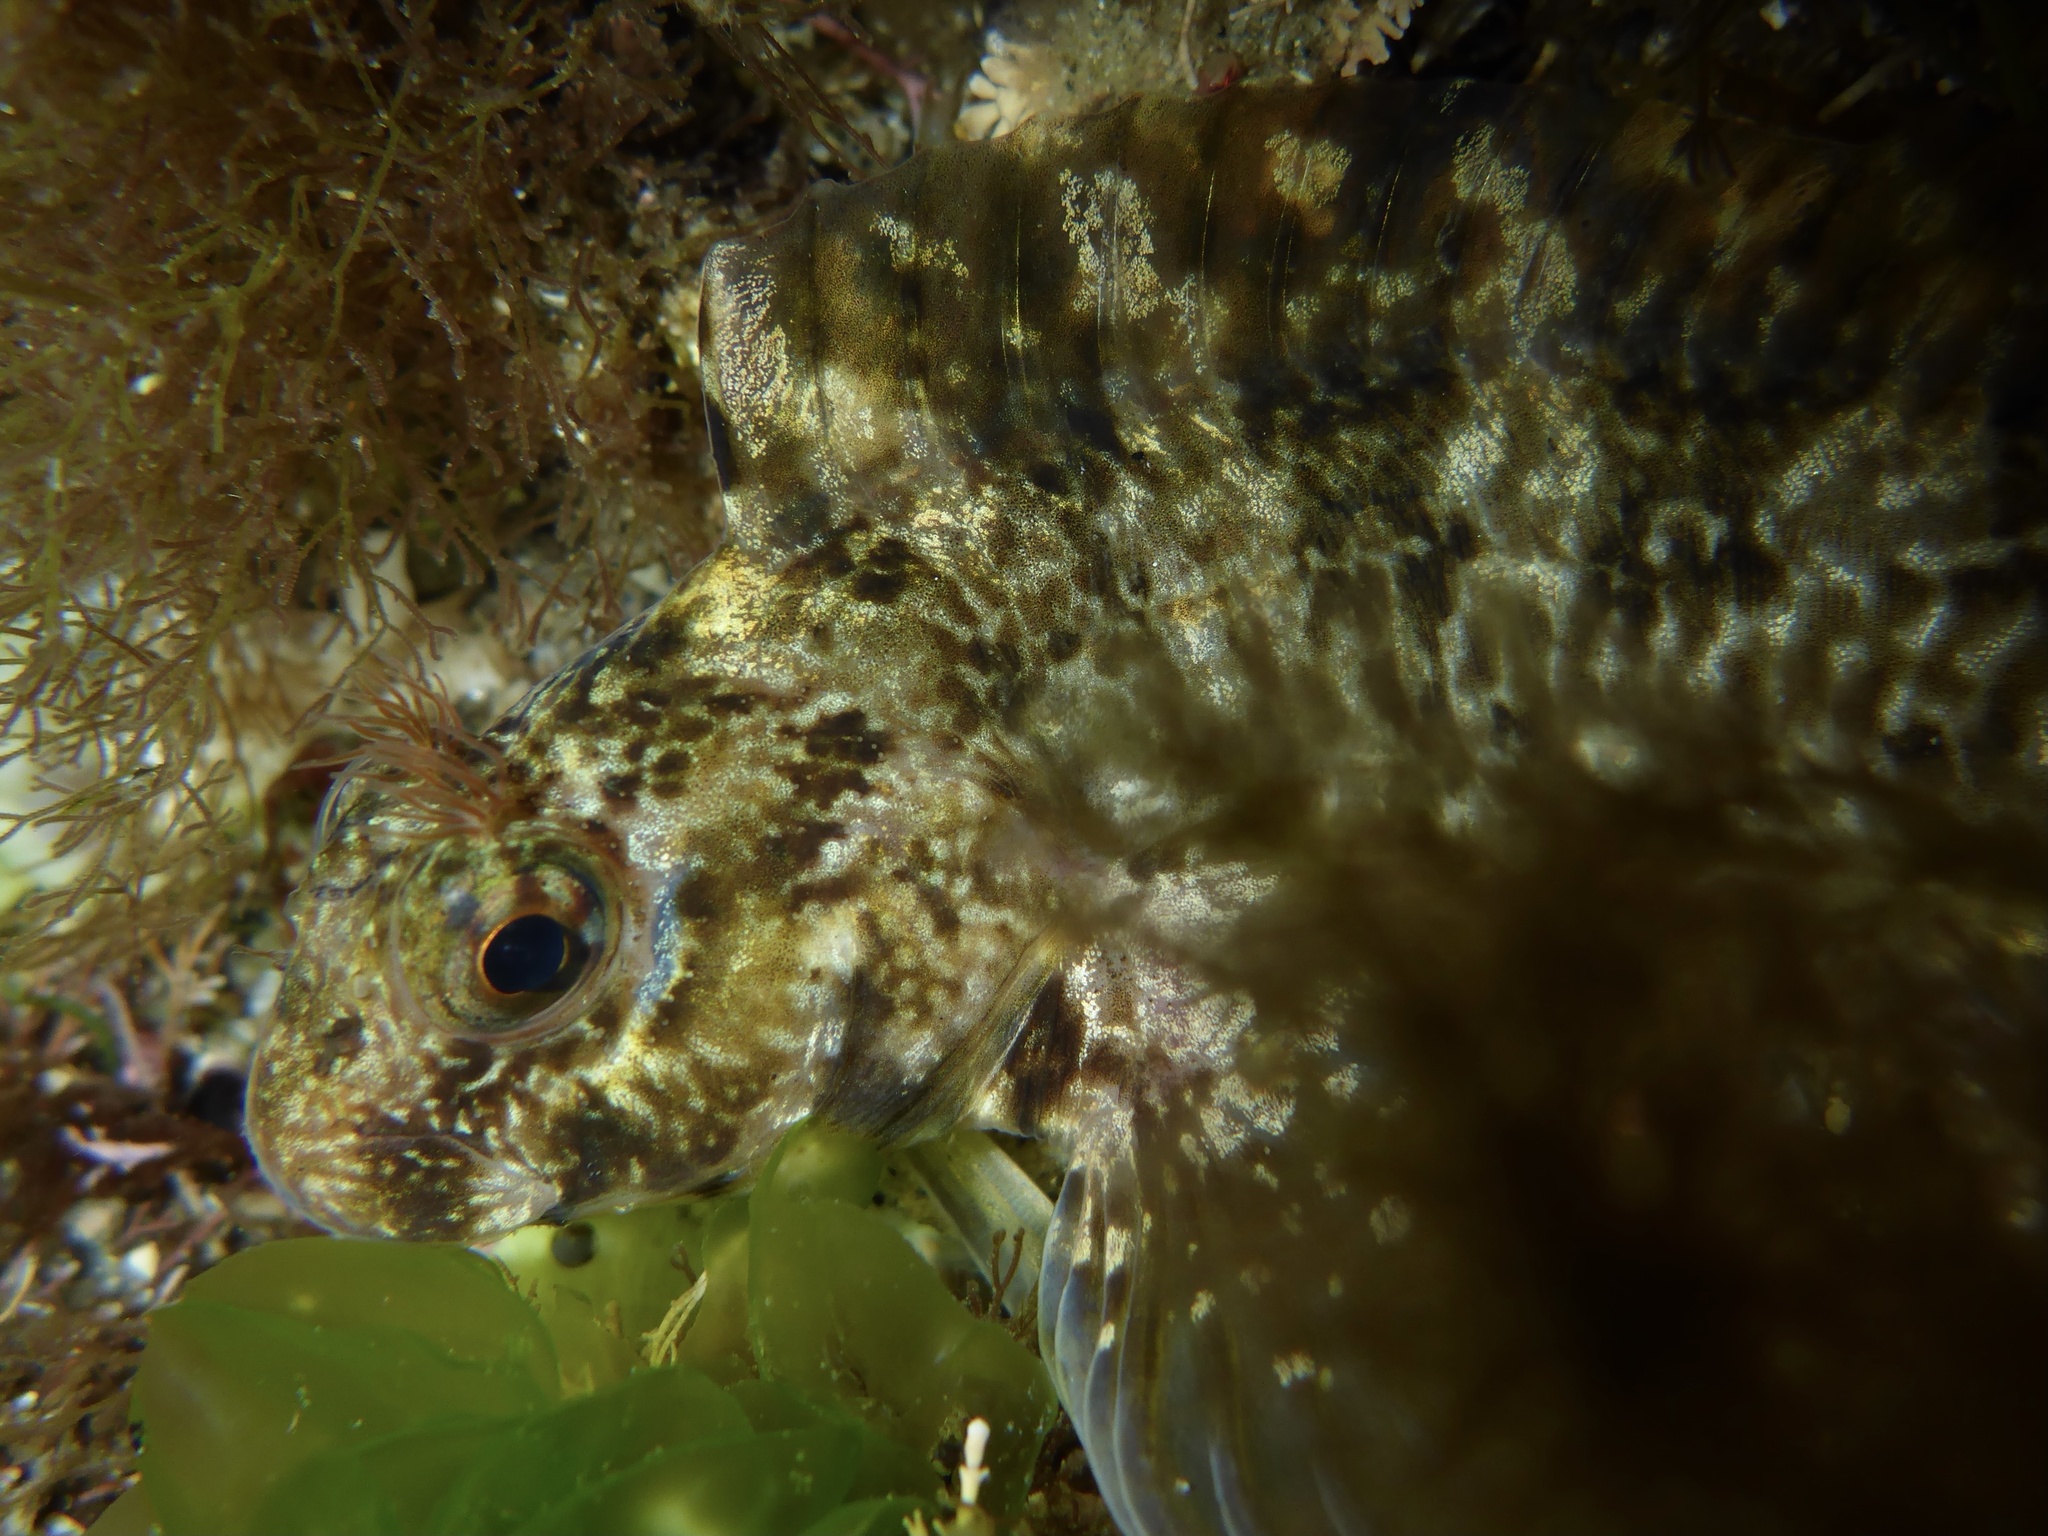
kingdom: Animalia
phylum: Chordata
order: Perciformes
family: Blenniidae
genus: Hypsoblennius
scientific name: Hypsoblennius gilberti
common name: Notchbrow blenny
